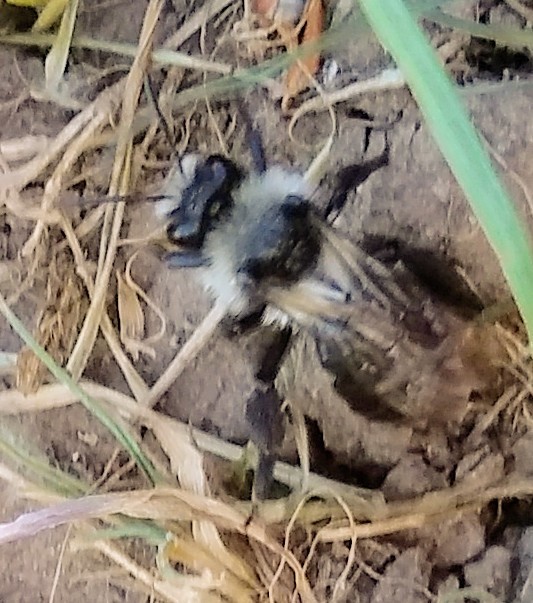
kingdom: Animalia
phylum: Arthropoda
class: Insecta
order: Hymenoptera
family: Andrenidae
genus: Andrena
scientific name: Andrena cineraria
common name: Ashy mining bee
